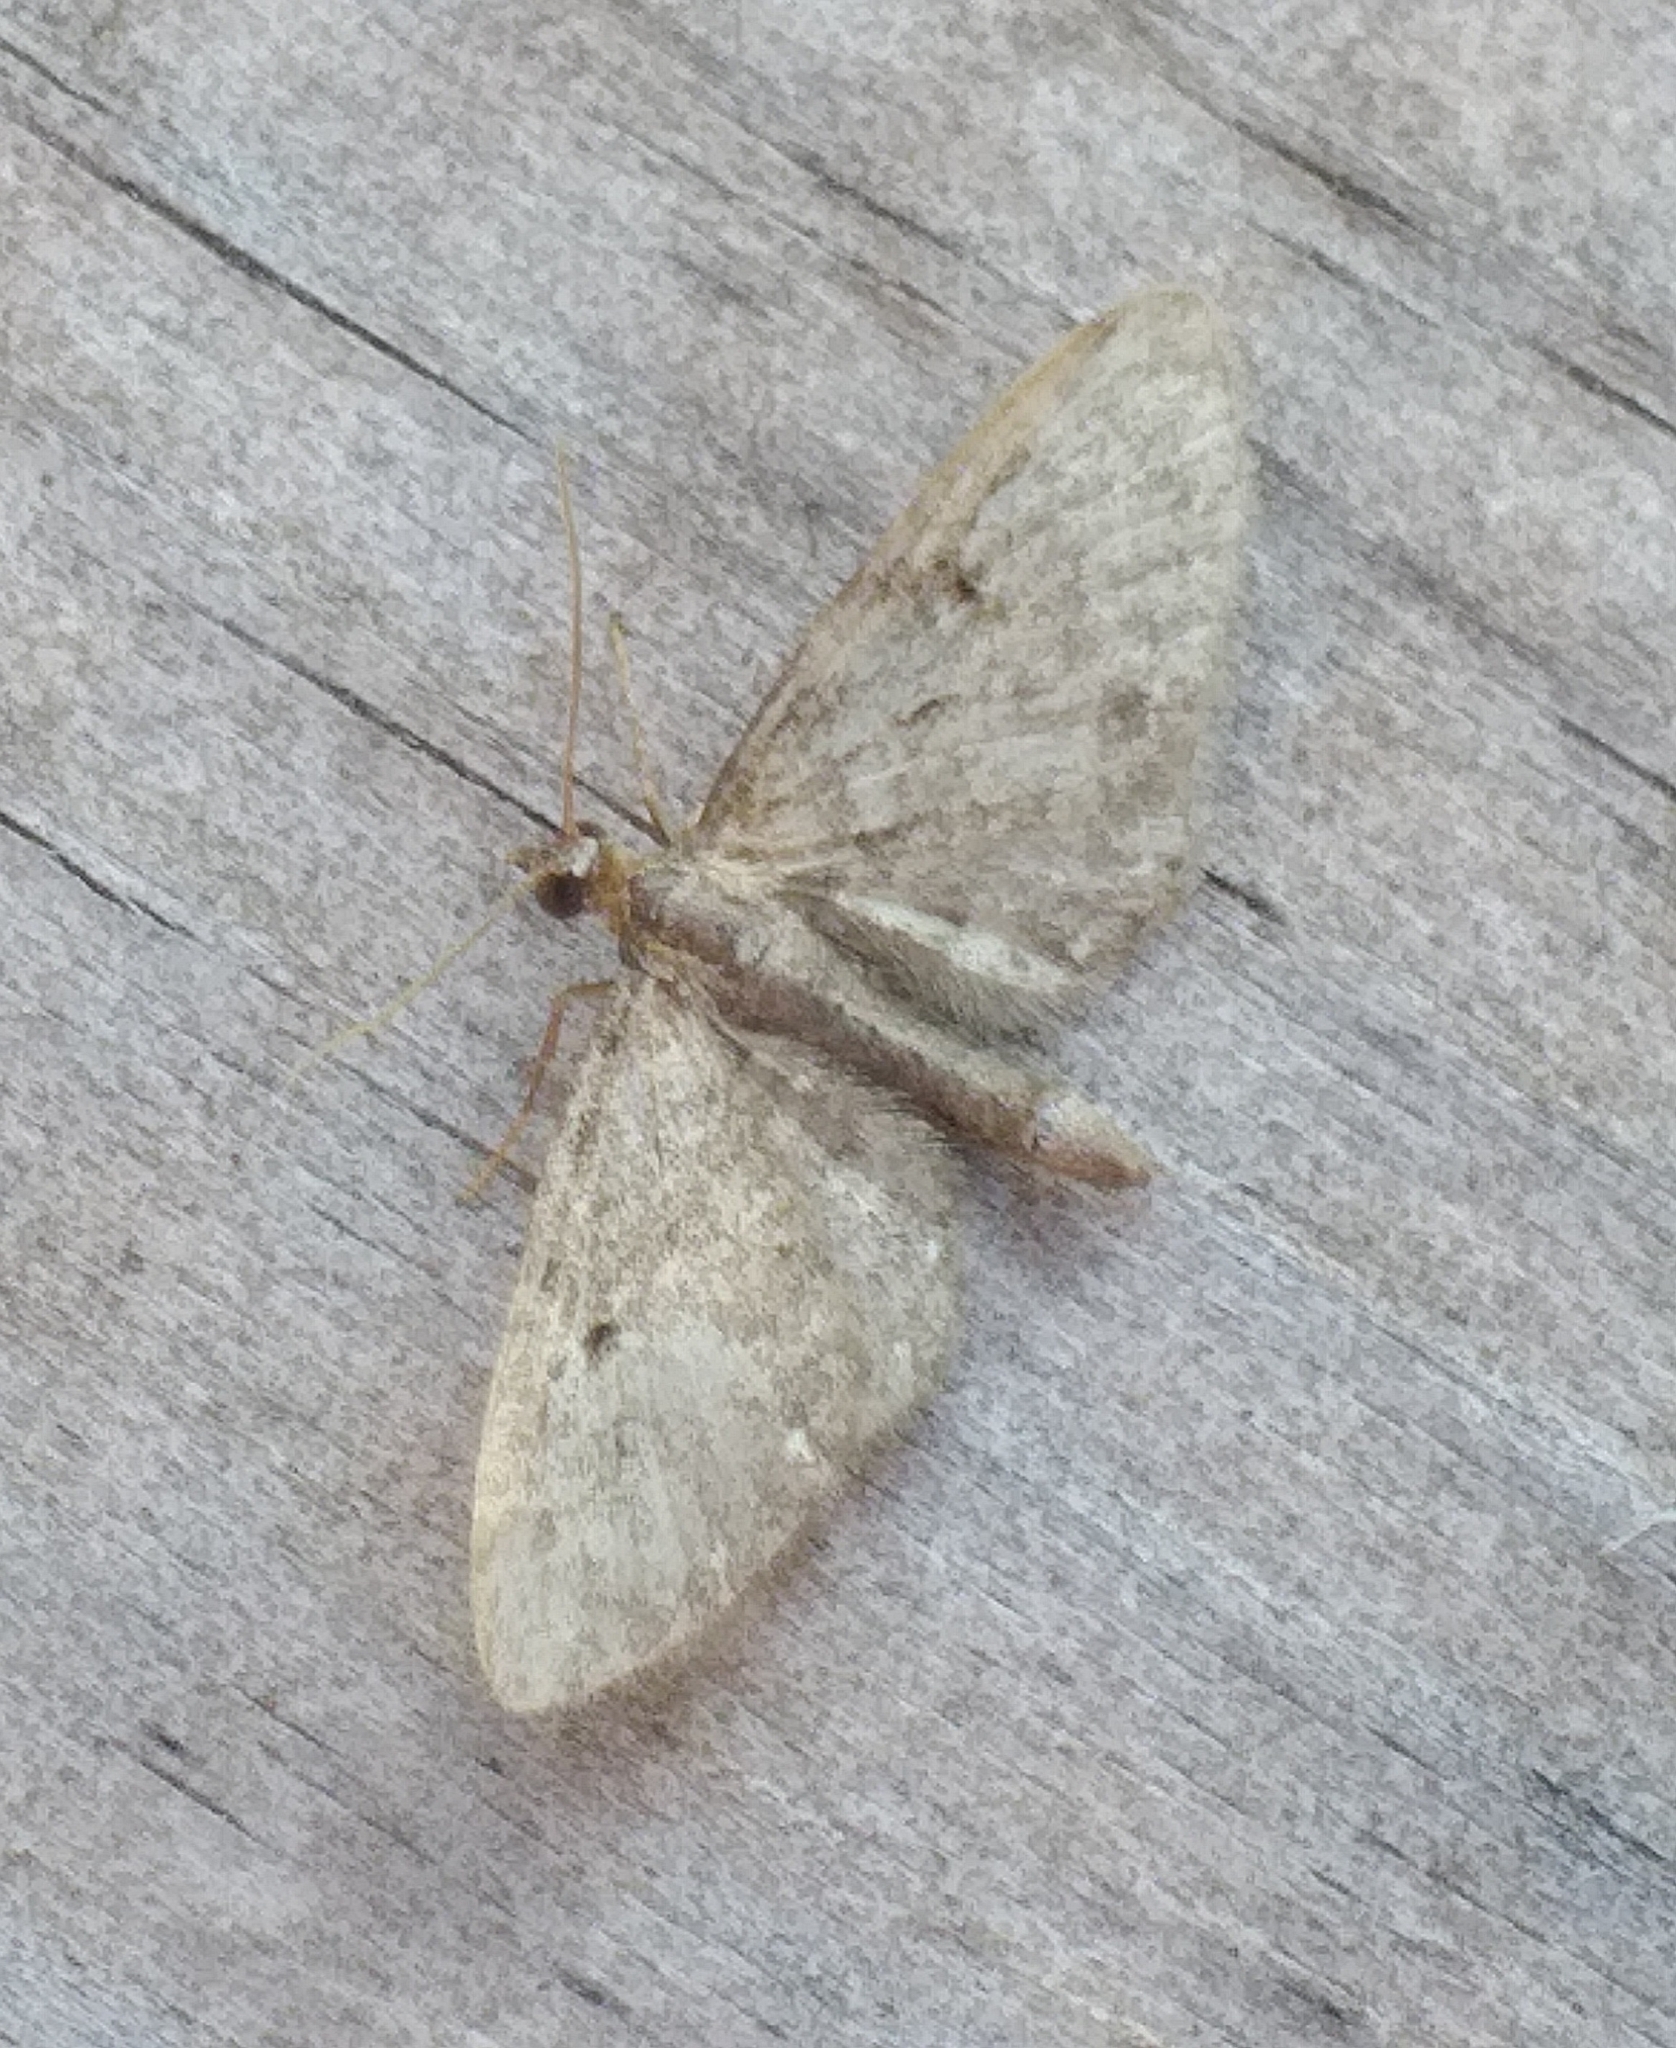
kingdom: Animalia
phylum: Arthropoda
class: Insecta
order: Lepidoptera
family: Geometridae
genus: Eupithecia
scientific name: Eupithecia abbreviata
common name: Brindled pug
